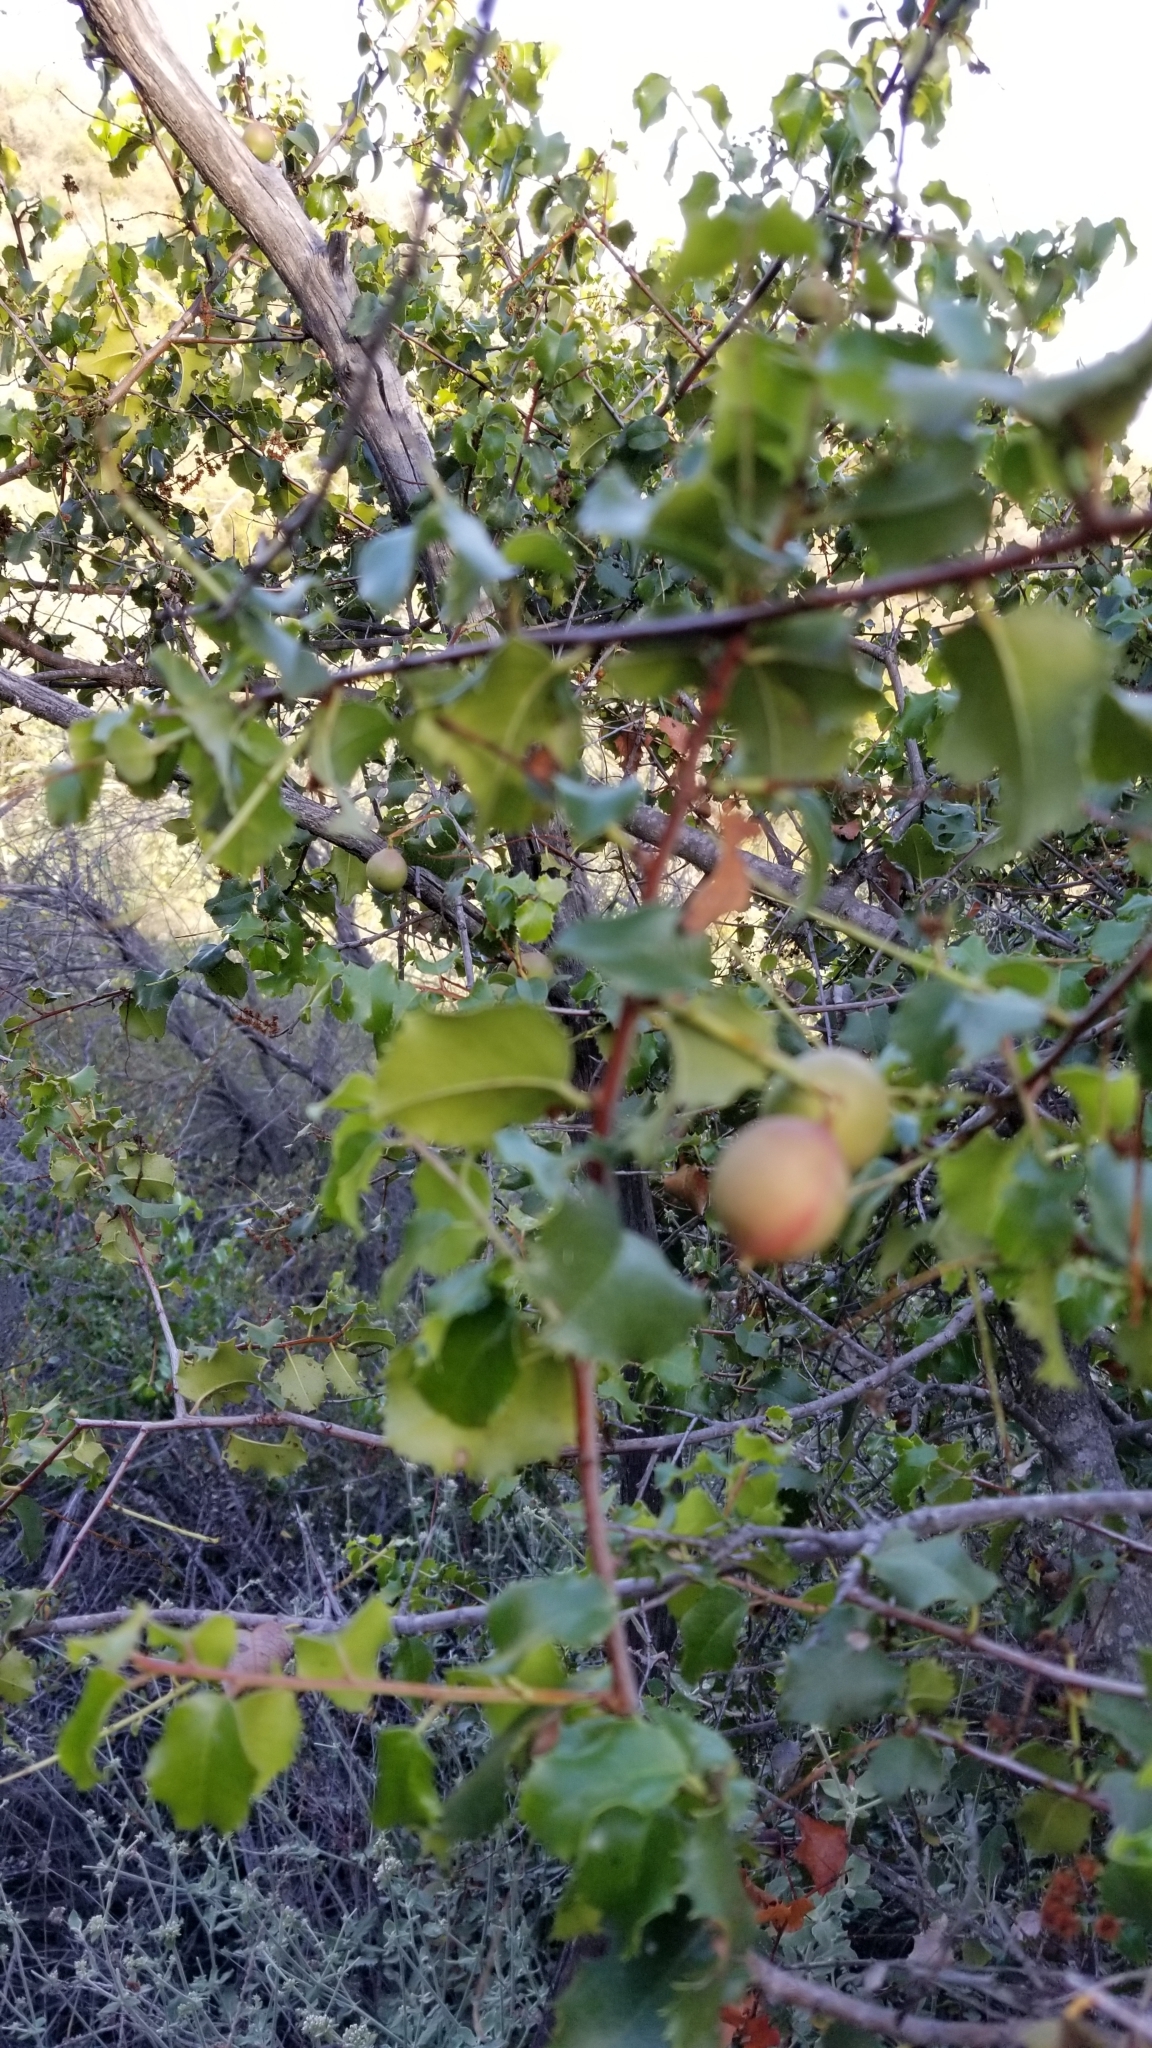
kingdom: Plantae
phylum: Tracheophyta
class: Magnoliopsida
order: Rosales
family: Rosaceae
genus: Prunus
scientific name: Prunus ilicifolia
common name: Hollyleaf cherry
